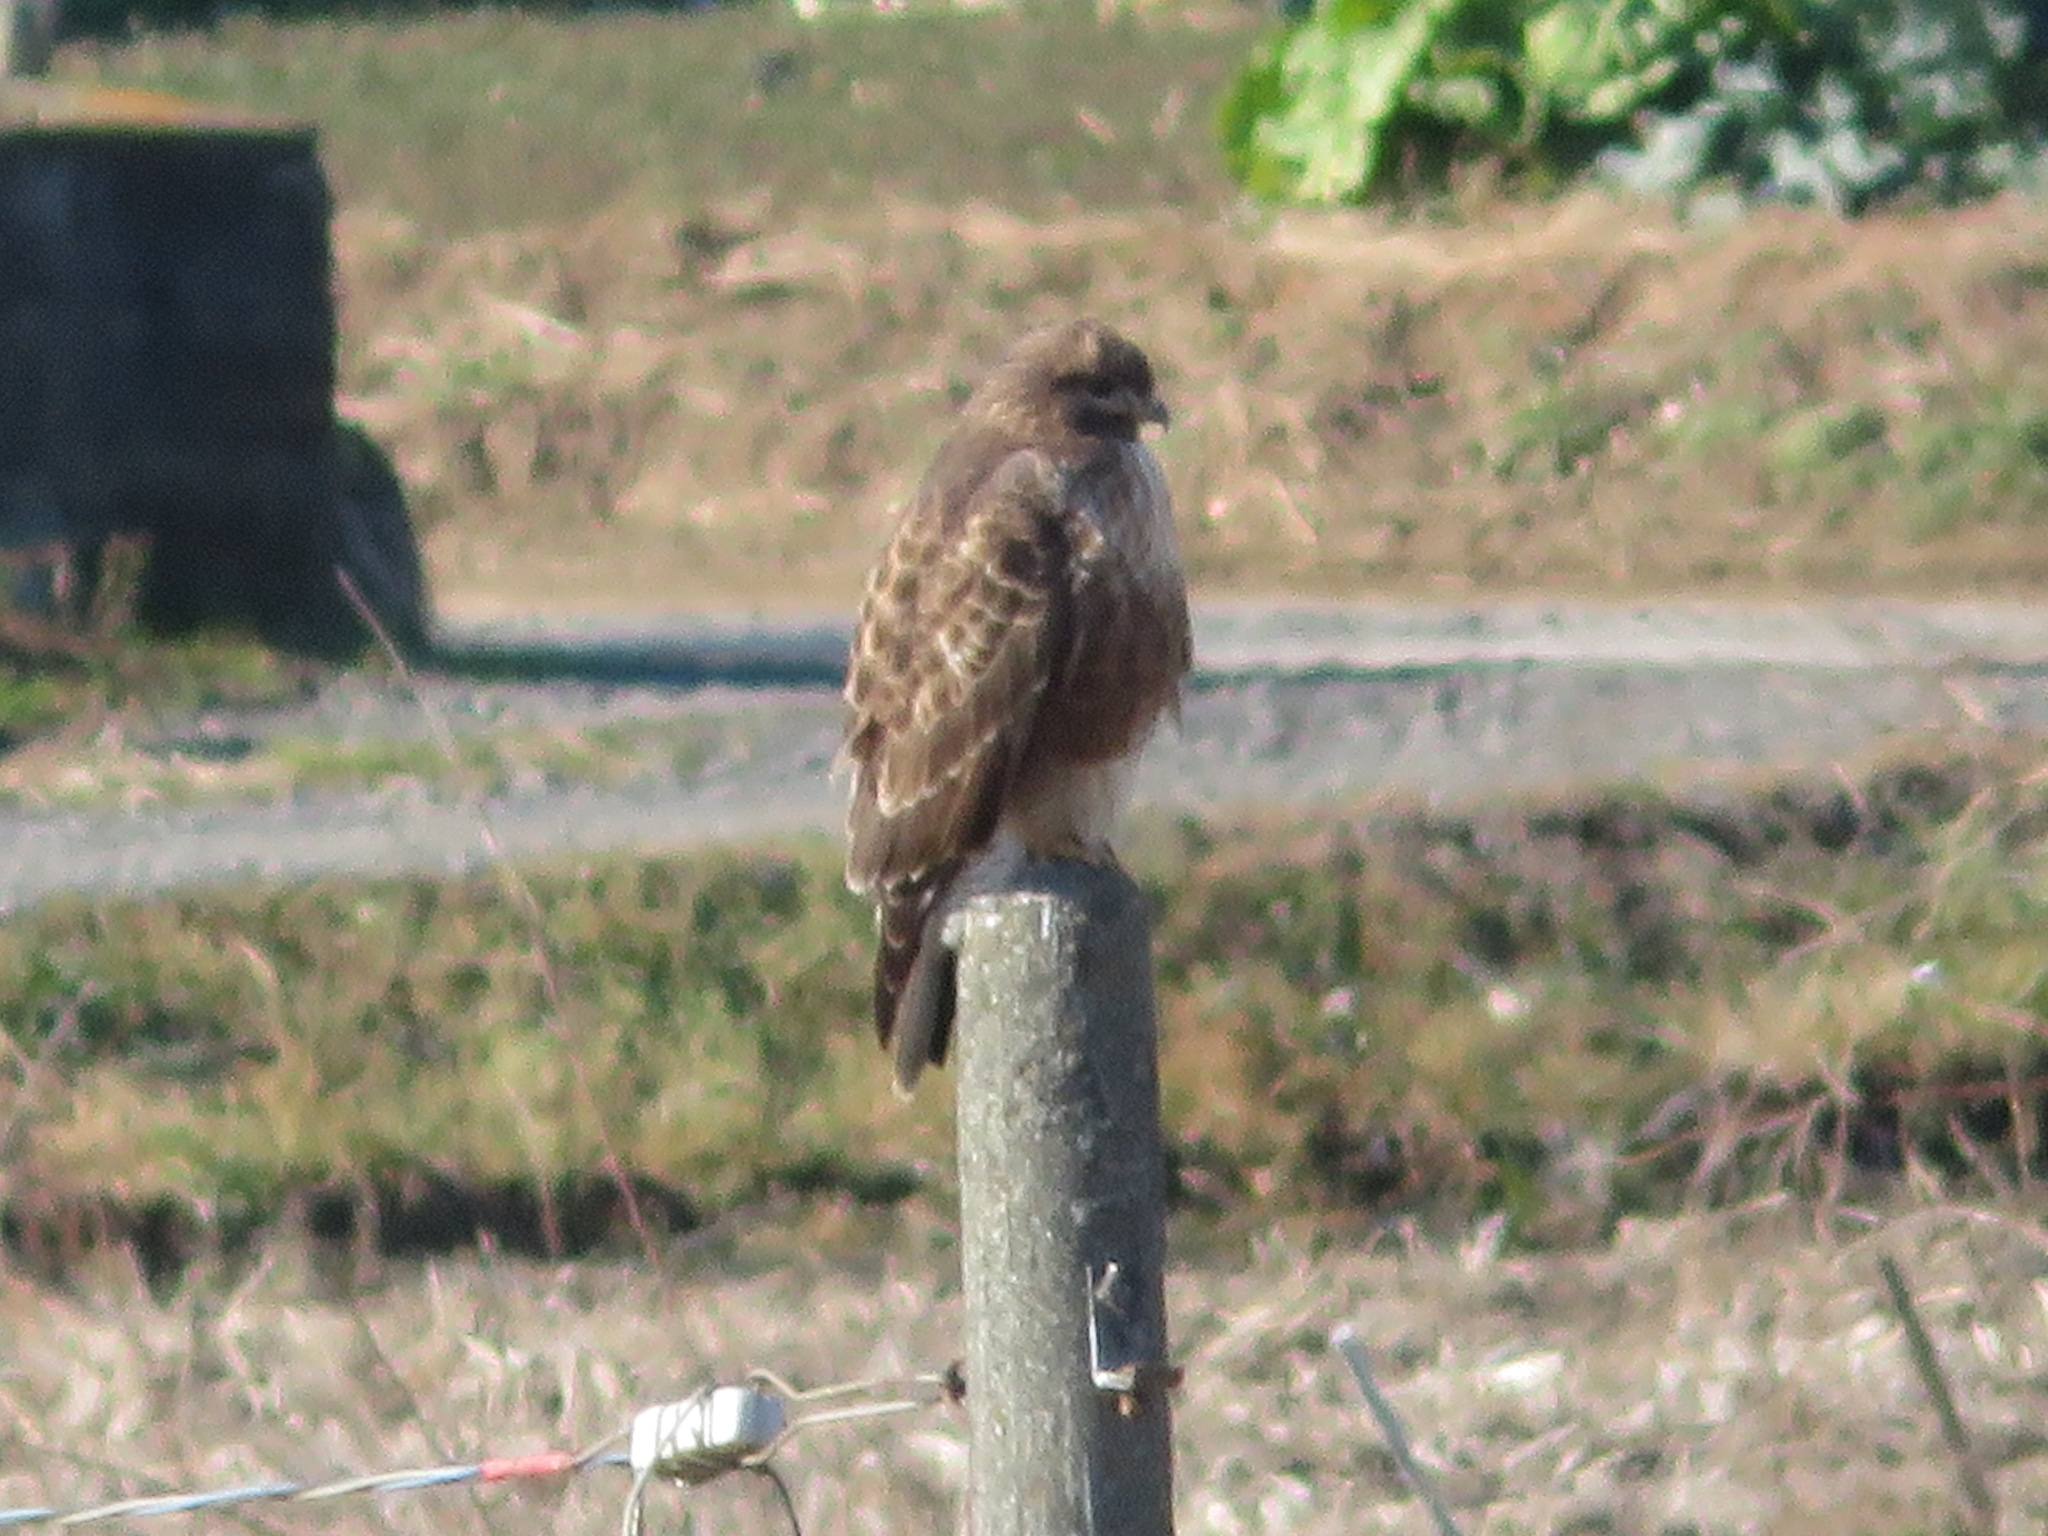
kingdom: Animalia
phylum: Chordata
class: Aves
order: Accipitriformes
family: Accipitridae
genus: Buteo
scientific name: Buteo japonicus
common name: Eastern buzzard
